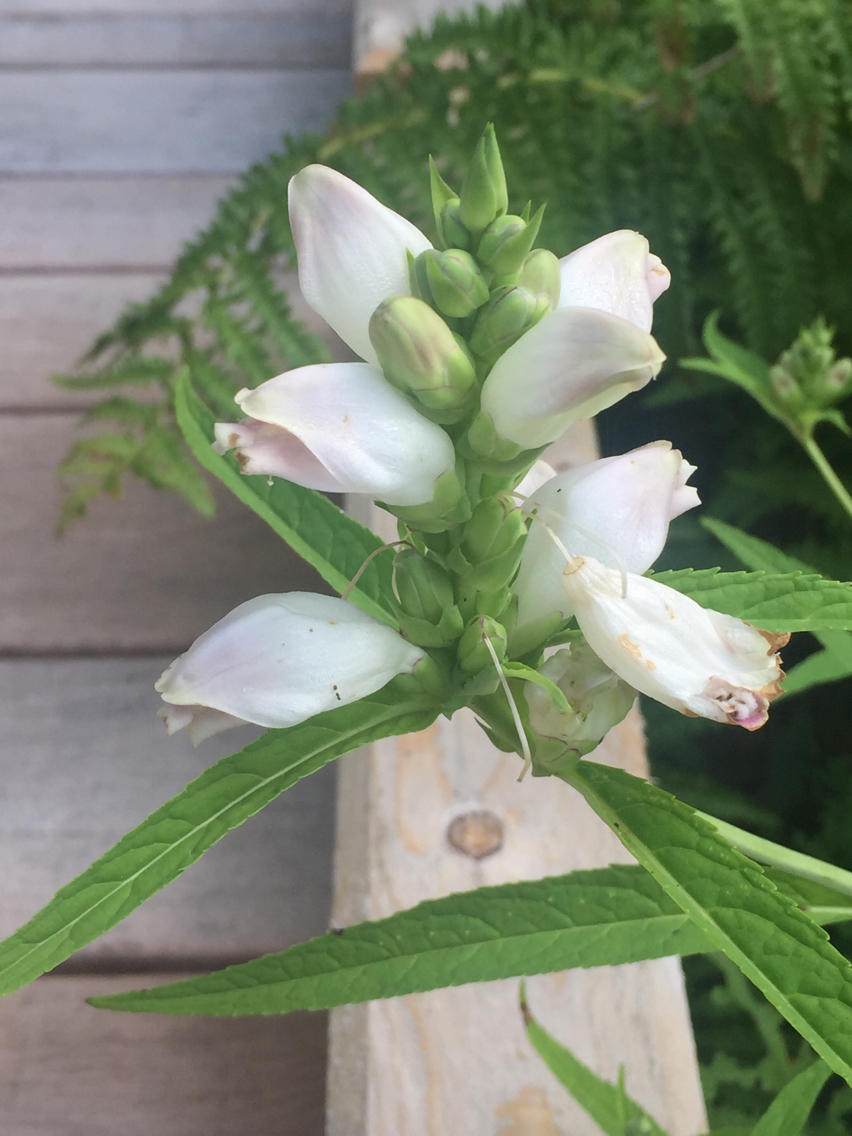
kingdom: Plantae
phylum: Tracheophyta
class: Magnoliopsida
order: Lamiales
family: Plantaginaceae
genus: Chelone
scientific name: Chelone glabra
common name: Snakehead
